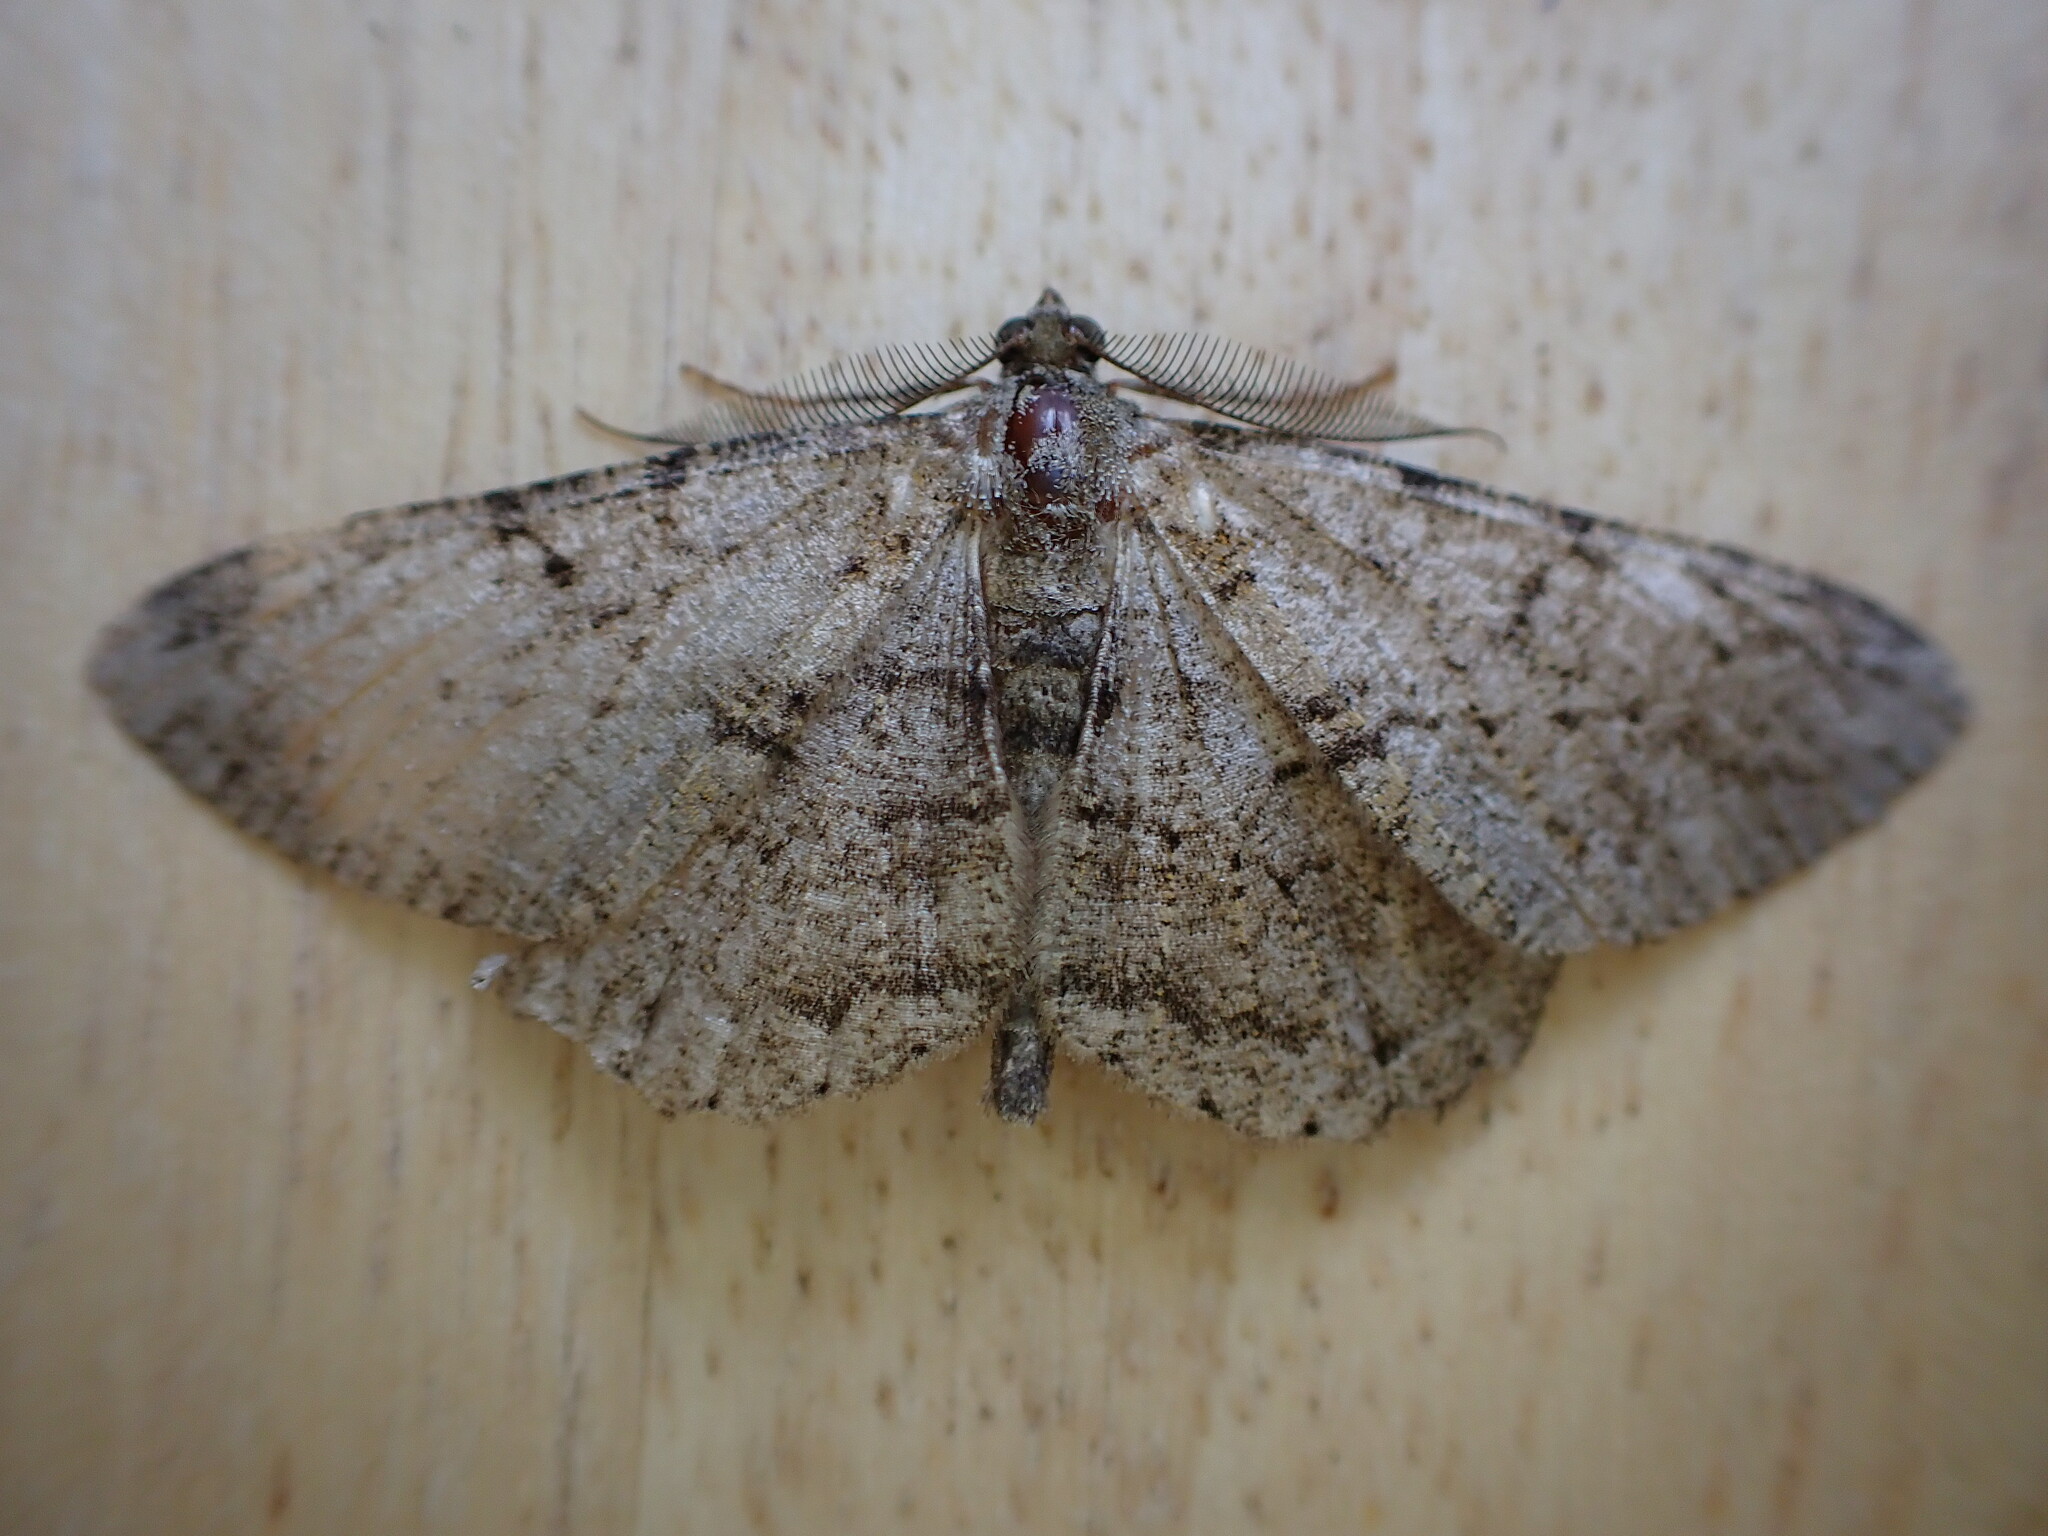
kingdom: Animalia
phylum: Arthropoda
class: Insecta
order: Lepidoptera
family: Geometridae
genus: Peribatodes
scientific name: Peribatodes rhomboidaria
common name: Willow beauty
